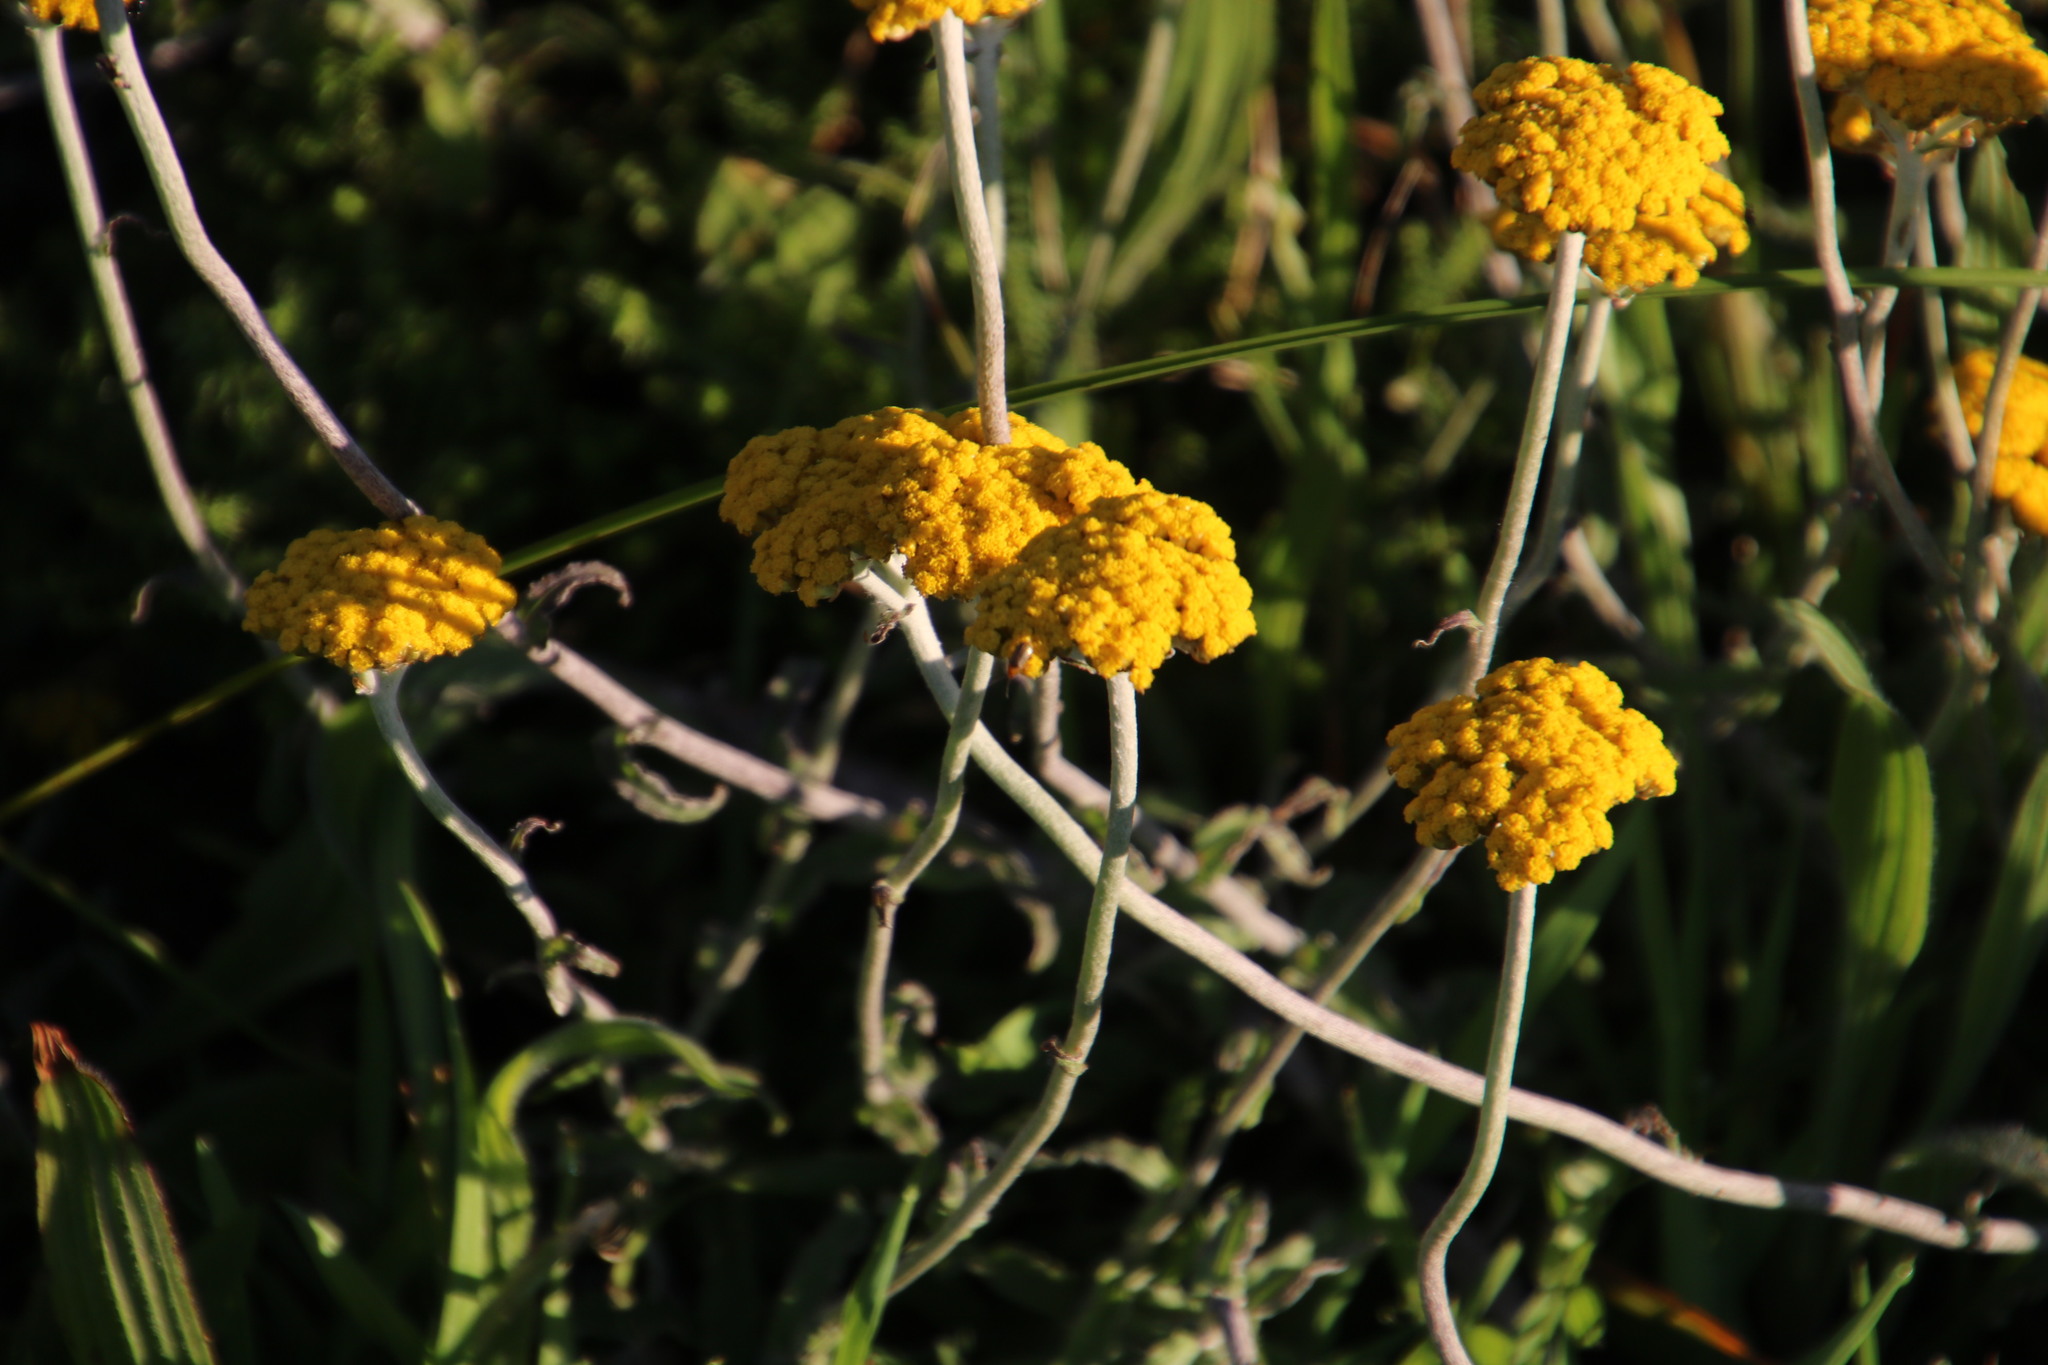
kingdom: Plantae
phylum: Tracheophyta
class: Magnoliopsida
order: Asterales
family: Asteraceae
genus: Helichrysum
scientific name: Helichrysum cymosum
